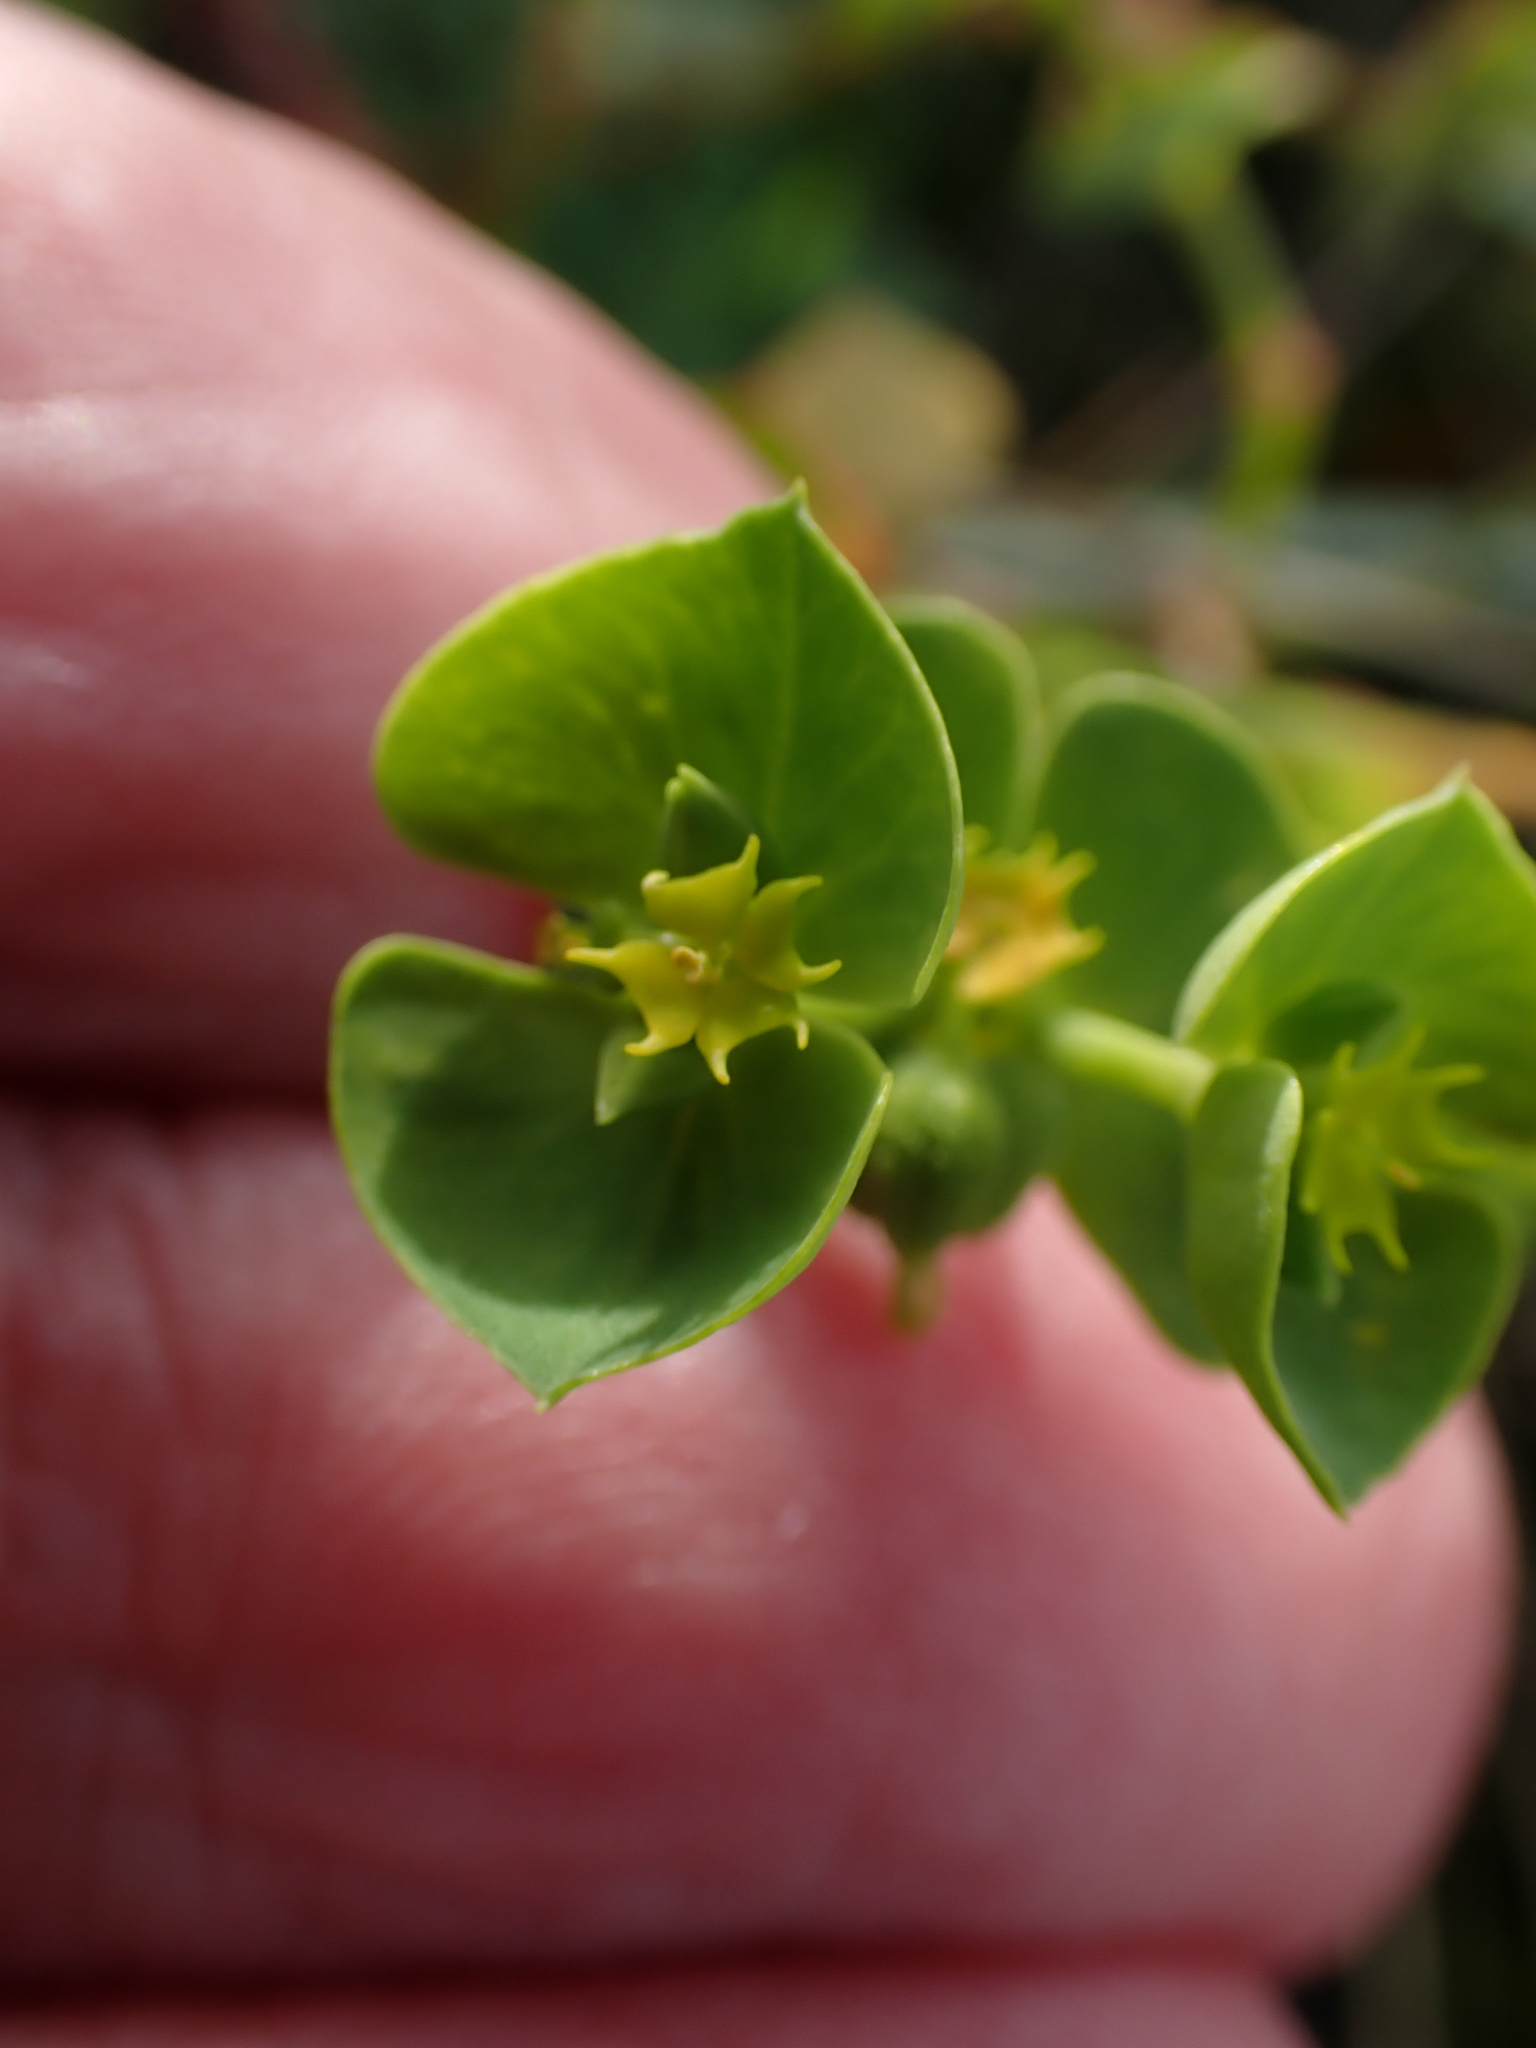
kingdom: Plantae
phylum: Tracheophyta
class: Magnoliopsida
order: Malpighiales
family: Euphorbiaceae
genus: Euphorbia
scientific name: Euphorbia portlandica
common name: Portland spurge
